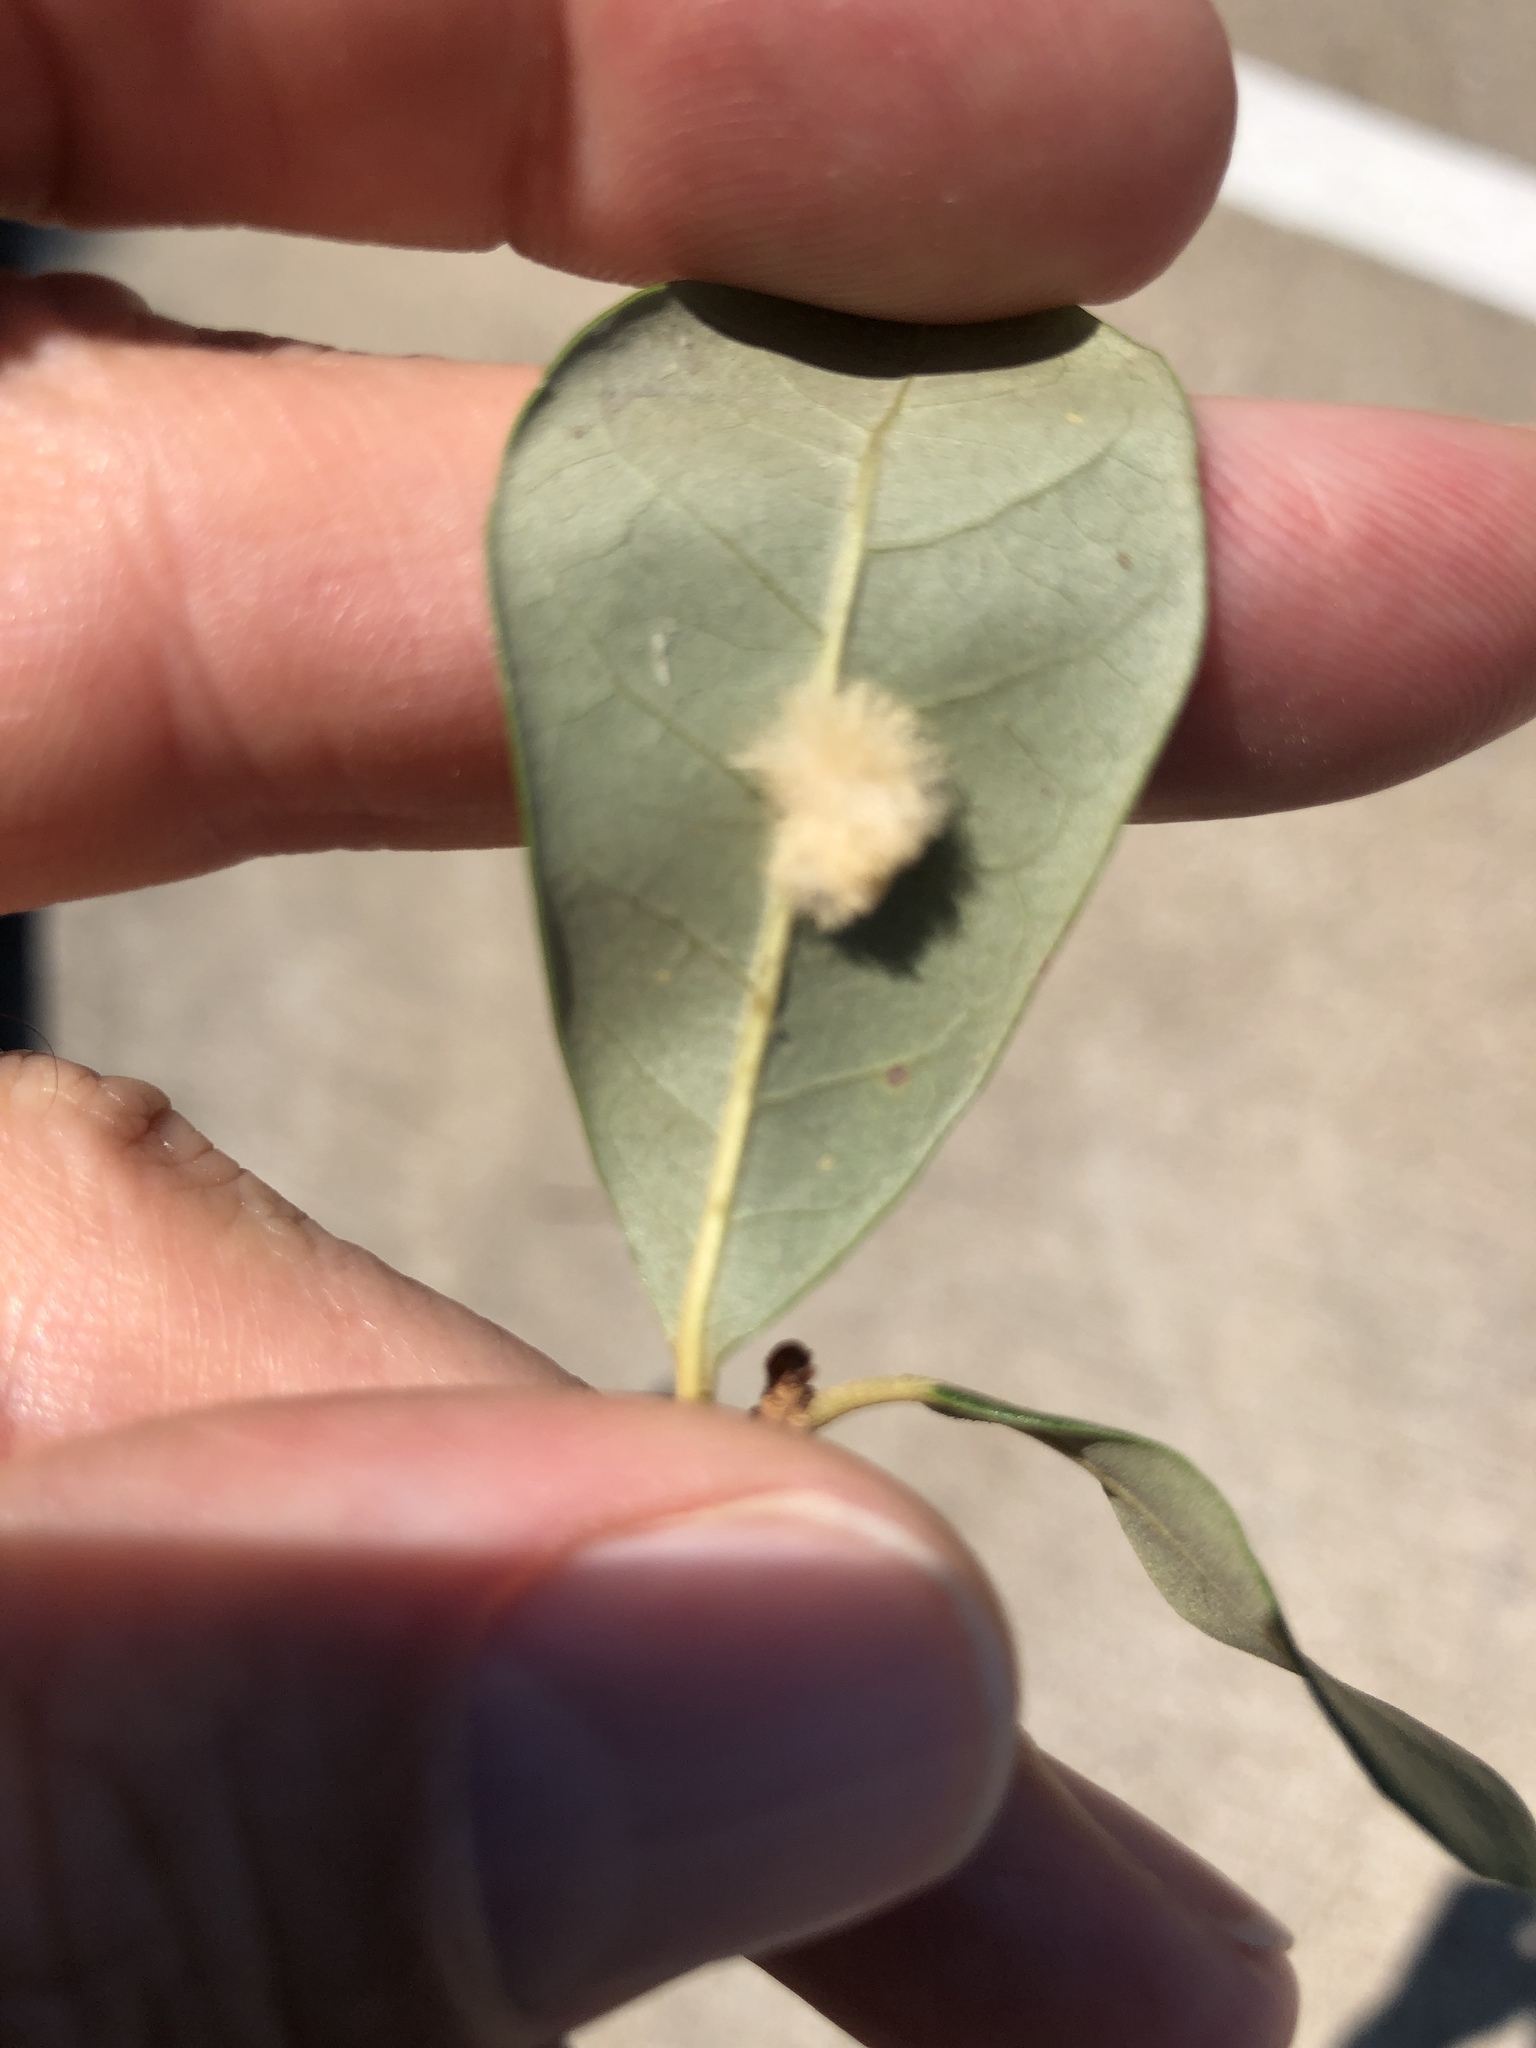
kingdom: Animalia
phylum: Arthropoda
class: Insecta
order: Hymenoptera
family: Cynipidae
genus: Andricus
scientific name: Andricus Druon quercuslanigerum
